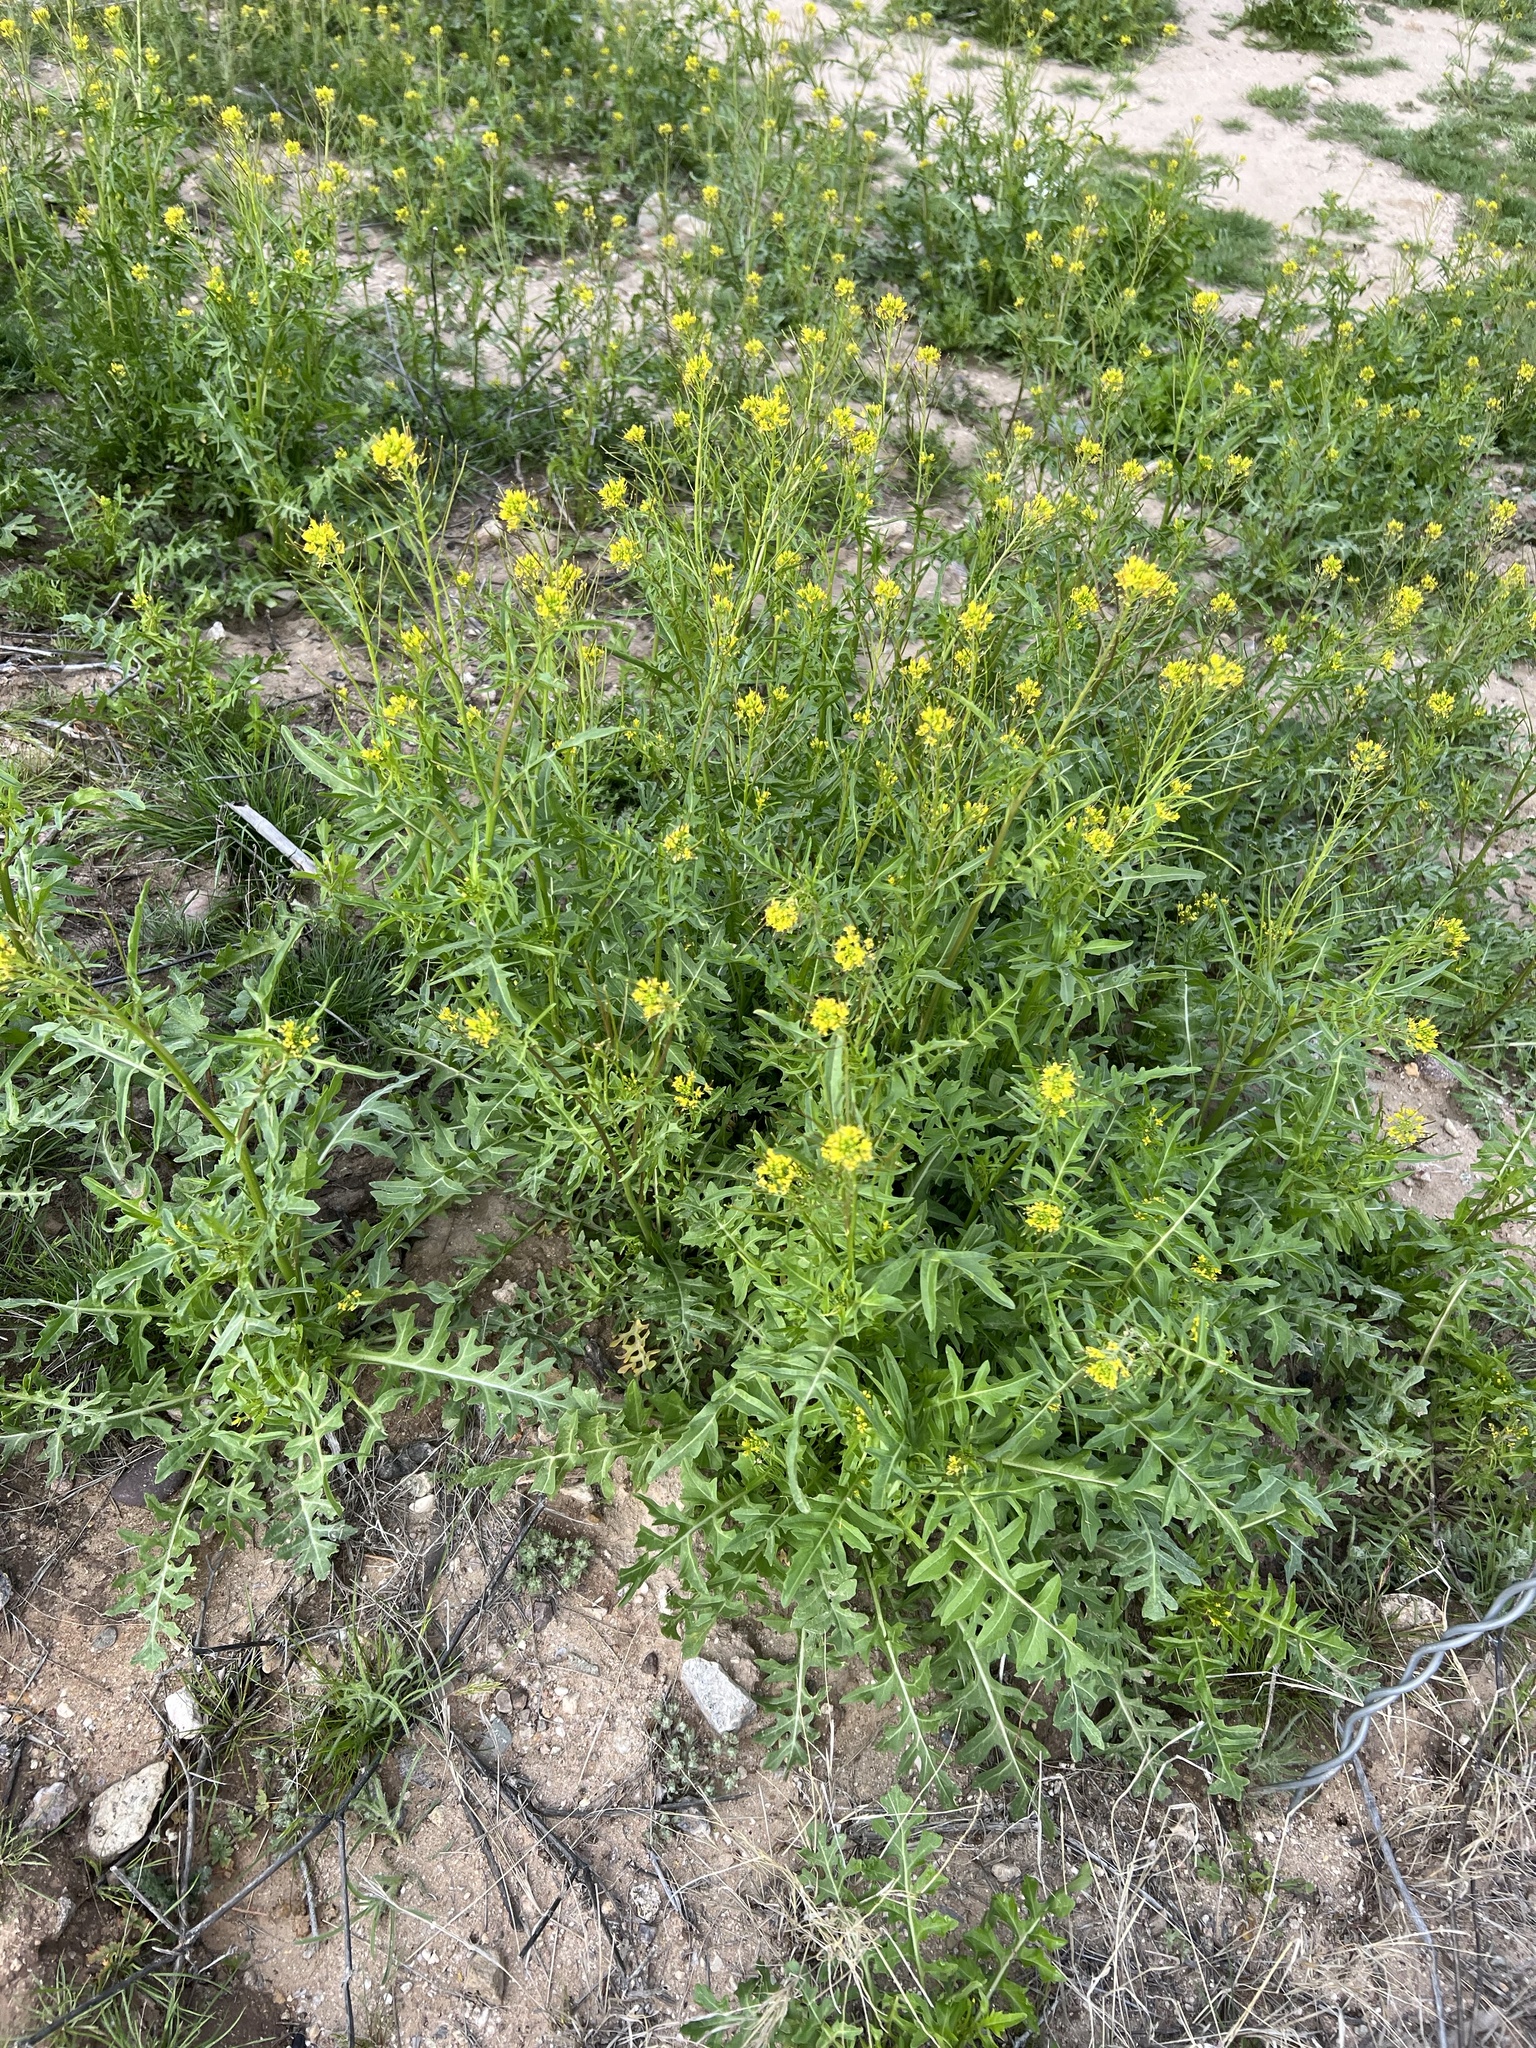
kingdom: Plantae
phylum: Tracheophyta
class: Magnoliopsida
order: Brassicales
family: Brassicaceae
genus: Sisymbrium
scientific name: Sisymbrium irio
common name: London rocket
